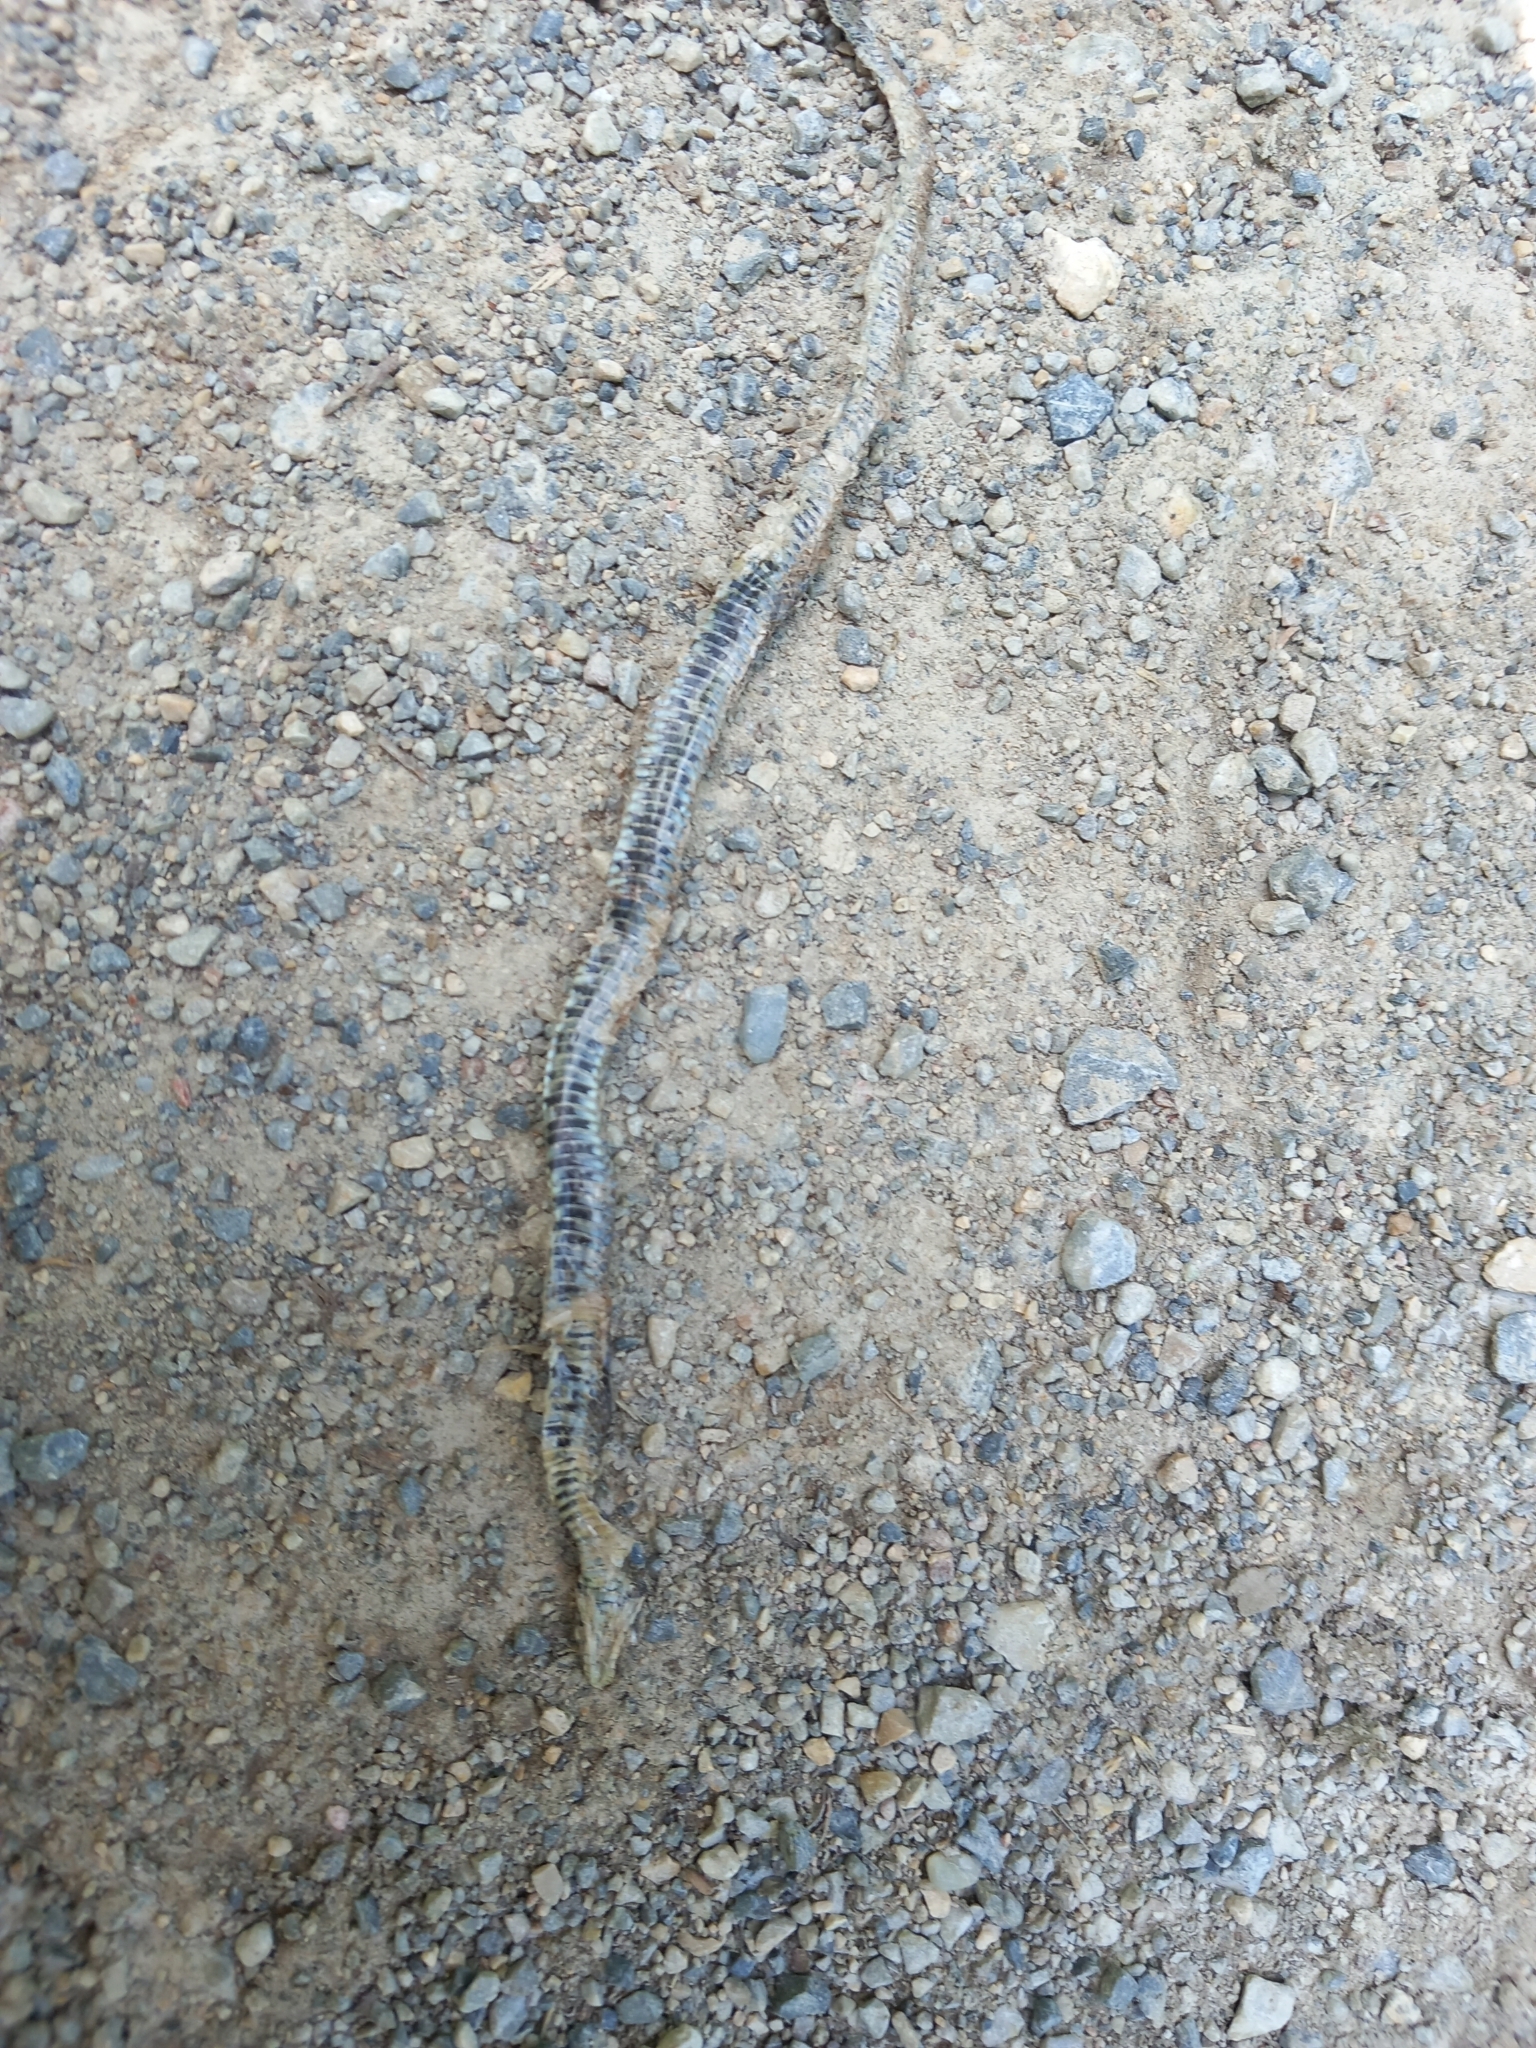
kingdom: Animalia
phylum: Chordata
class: Squamata
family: Colubridae
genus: Natrix
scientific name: Natrix natrix
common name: Grass snake
